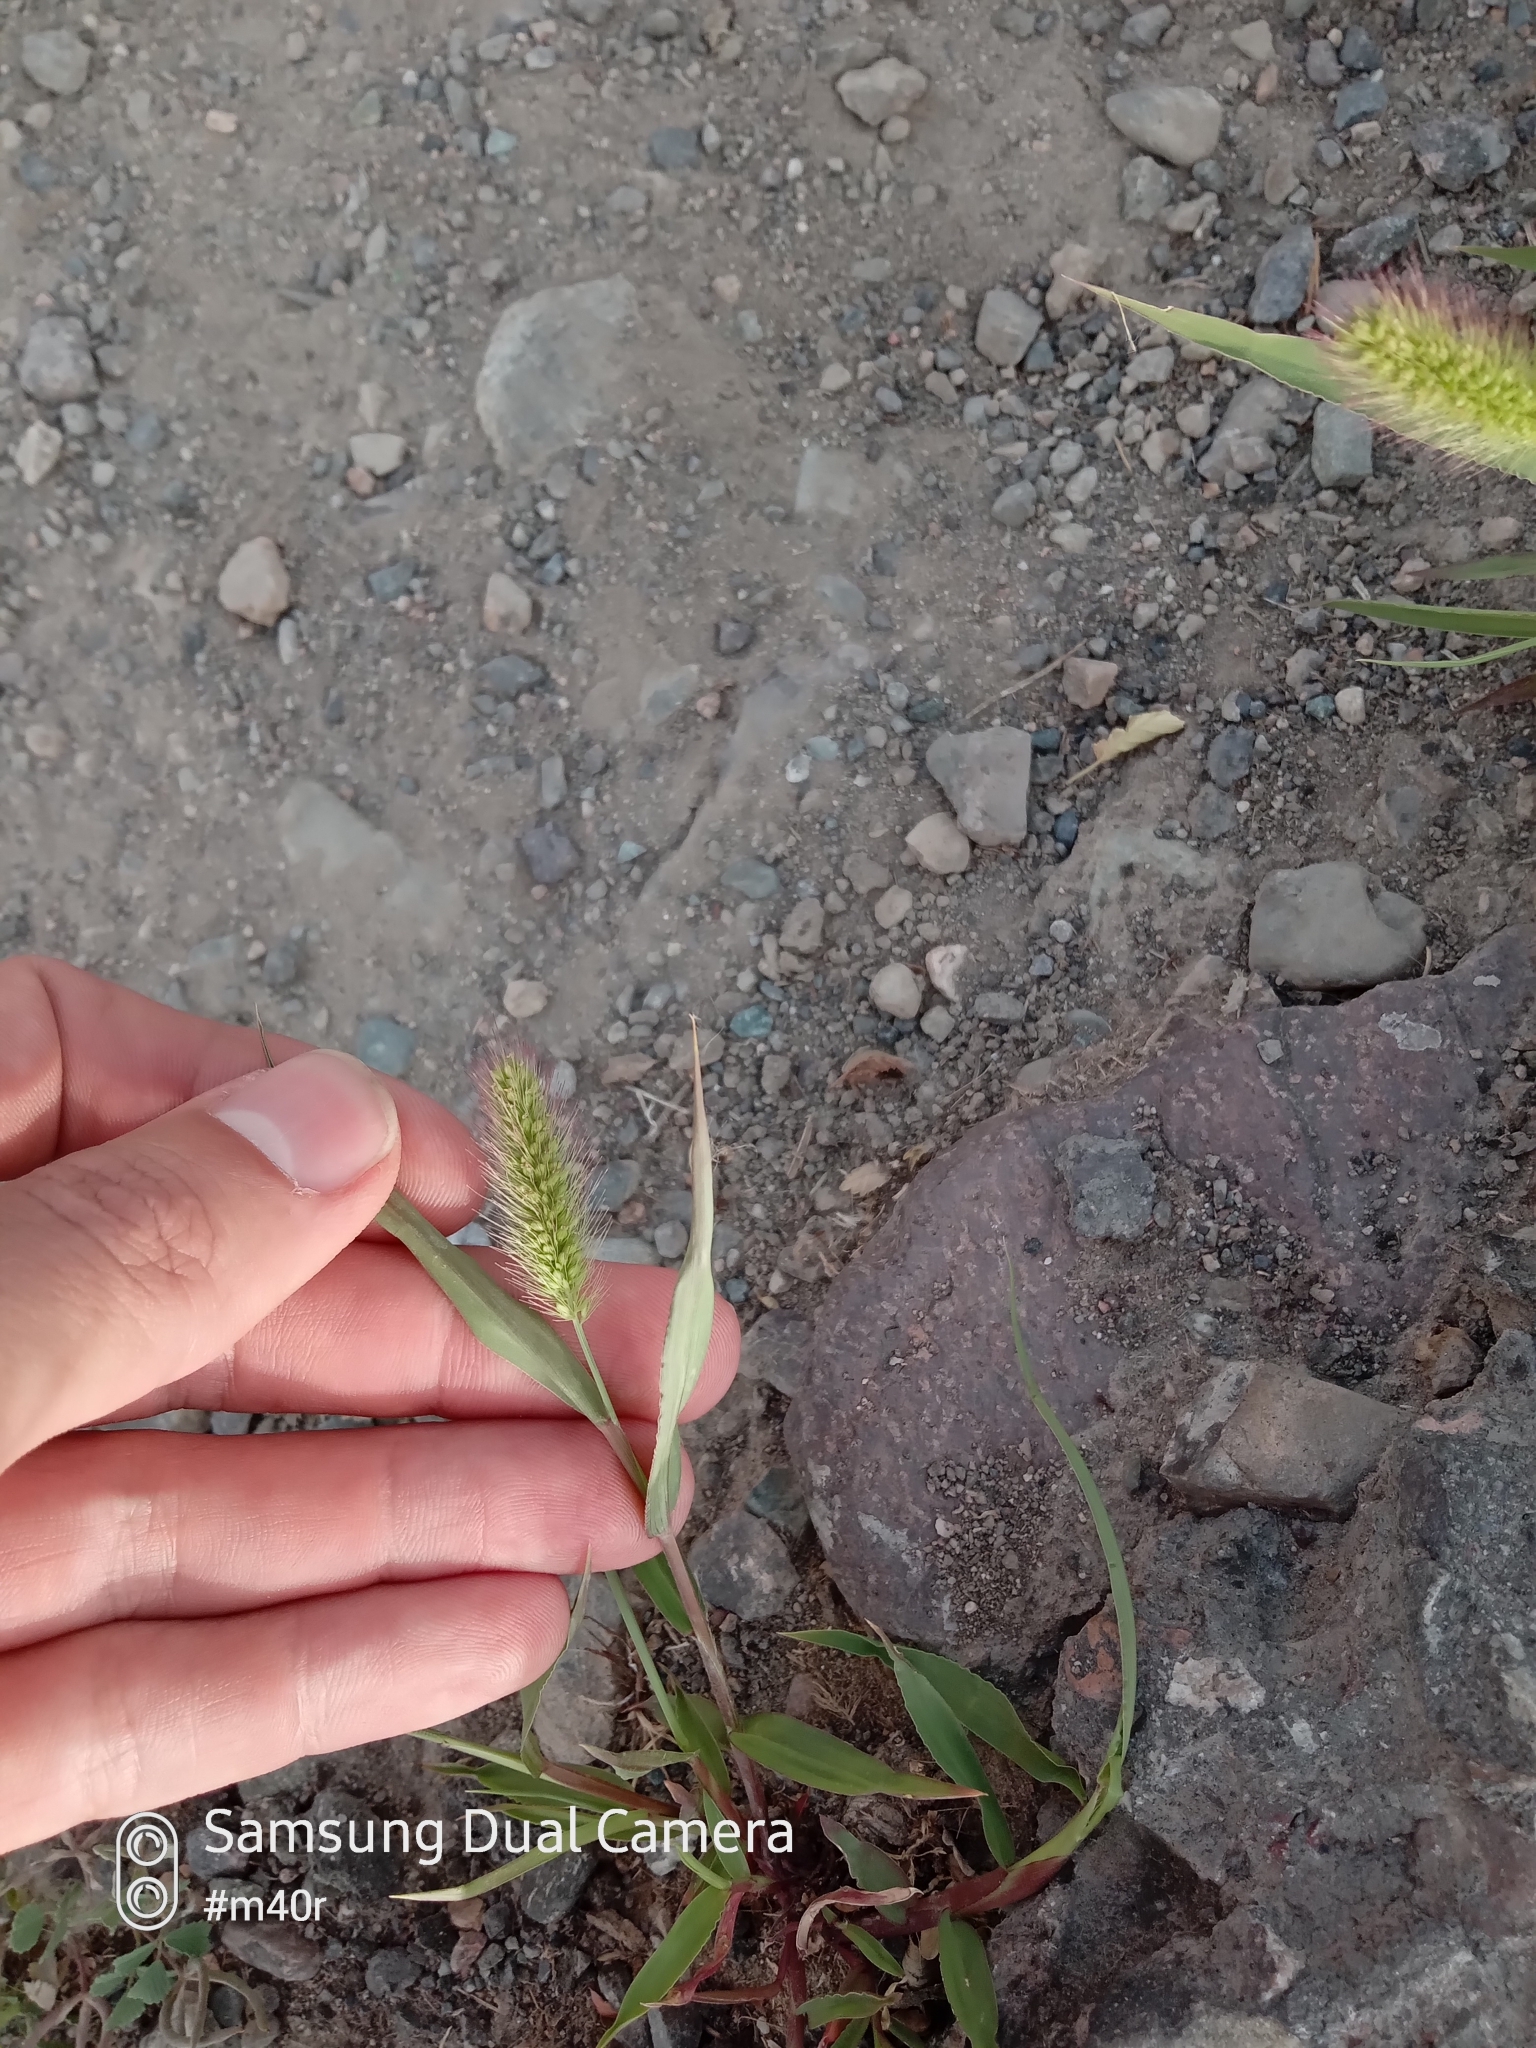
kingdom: Plantae
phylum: Tracheophyta
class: Liliopsida
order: Poales
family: Poaceae
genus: Setaria
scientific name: Setaria viridis
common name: Green bristlegrass
